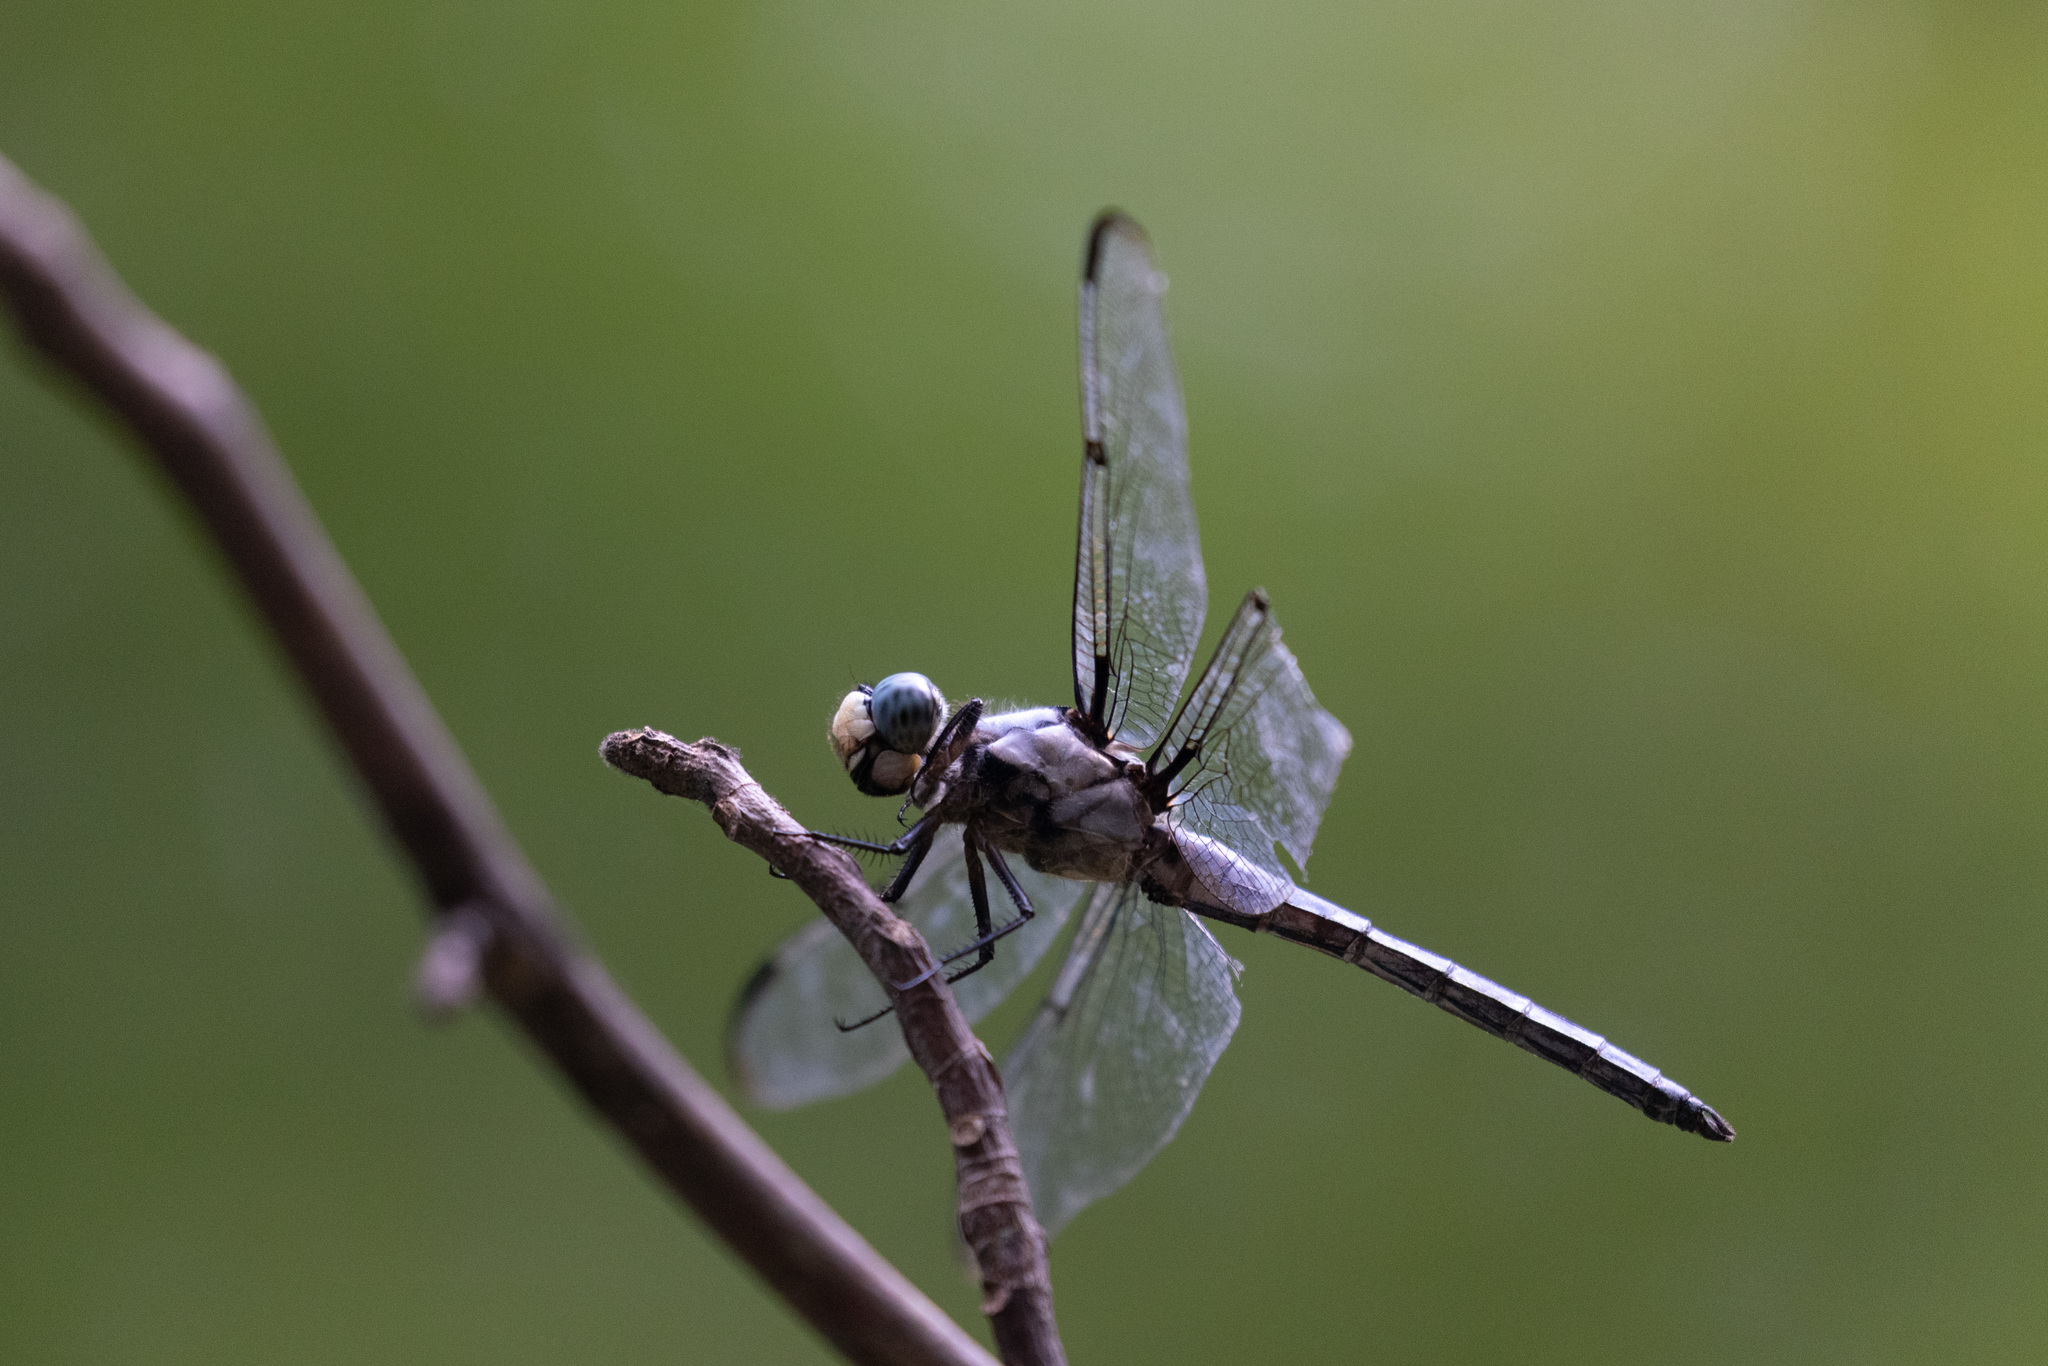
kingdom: Animalia
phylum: Arthropoda
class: Insecta
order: Odonata
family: Libellulidae
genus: Libellula
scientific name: Libellula vibrans
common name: Great blue skimmer
